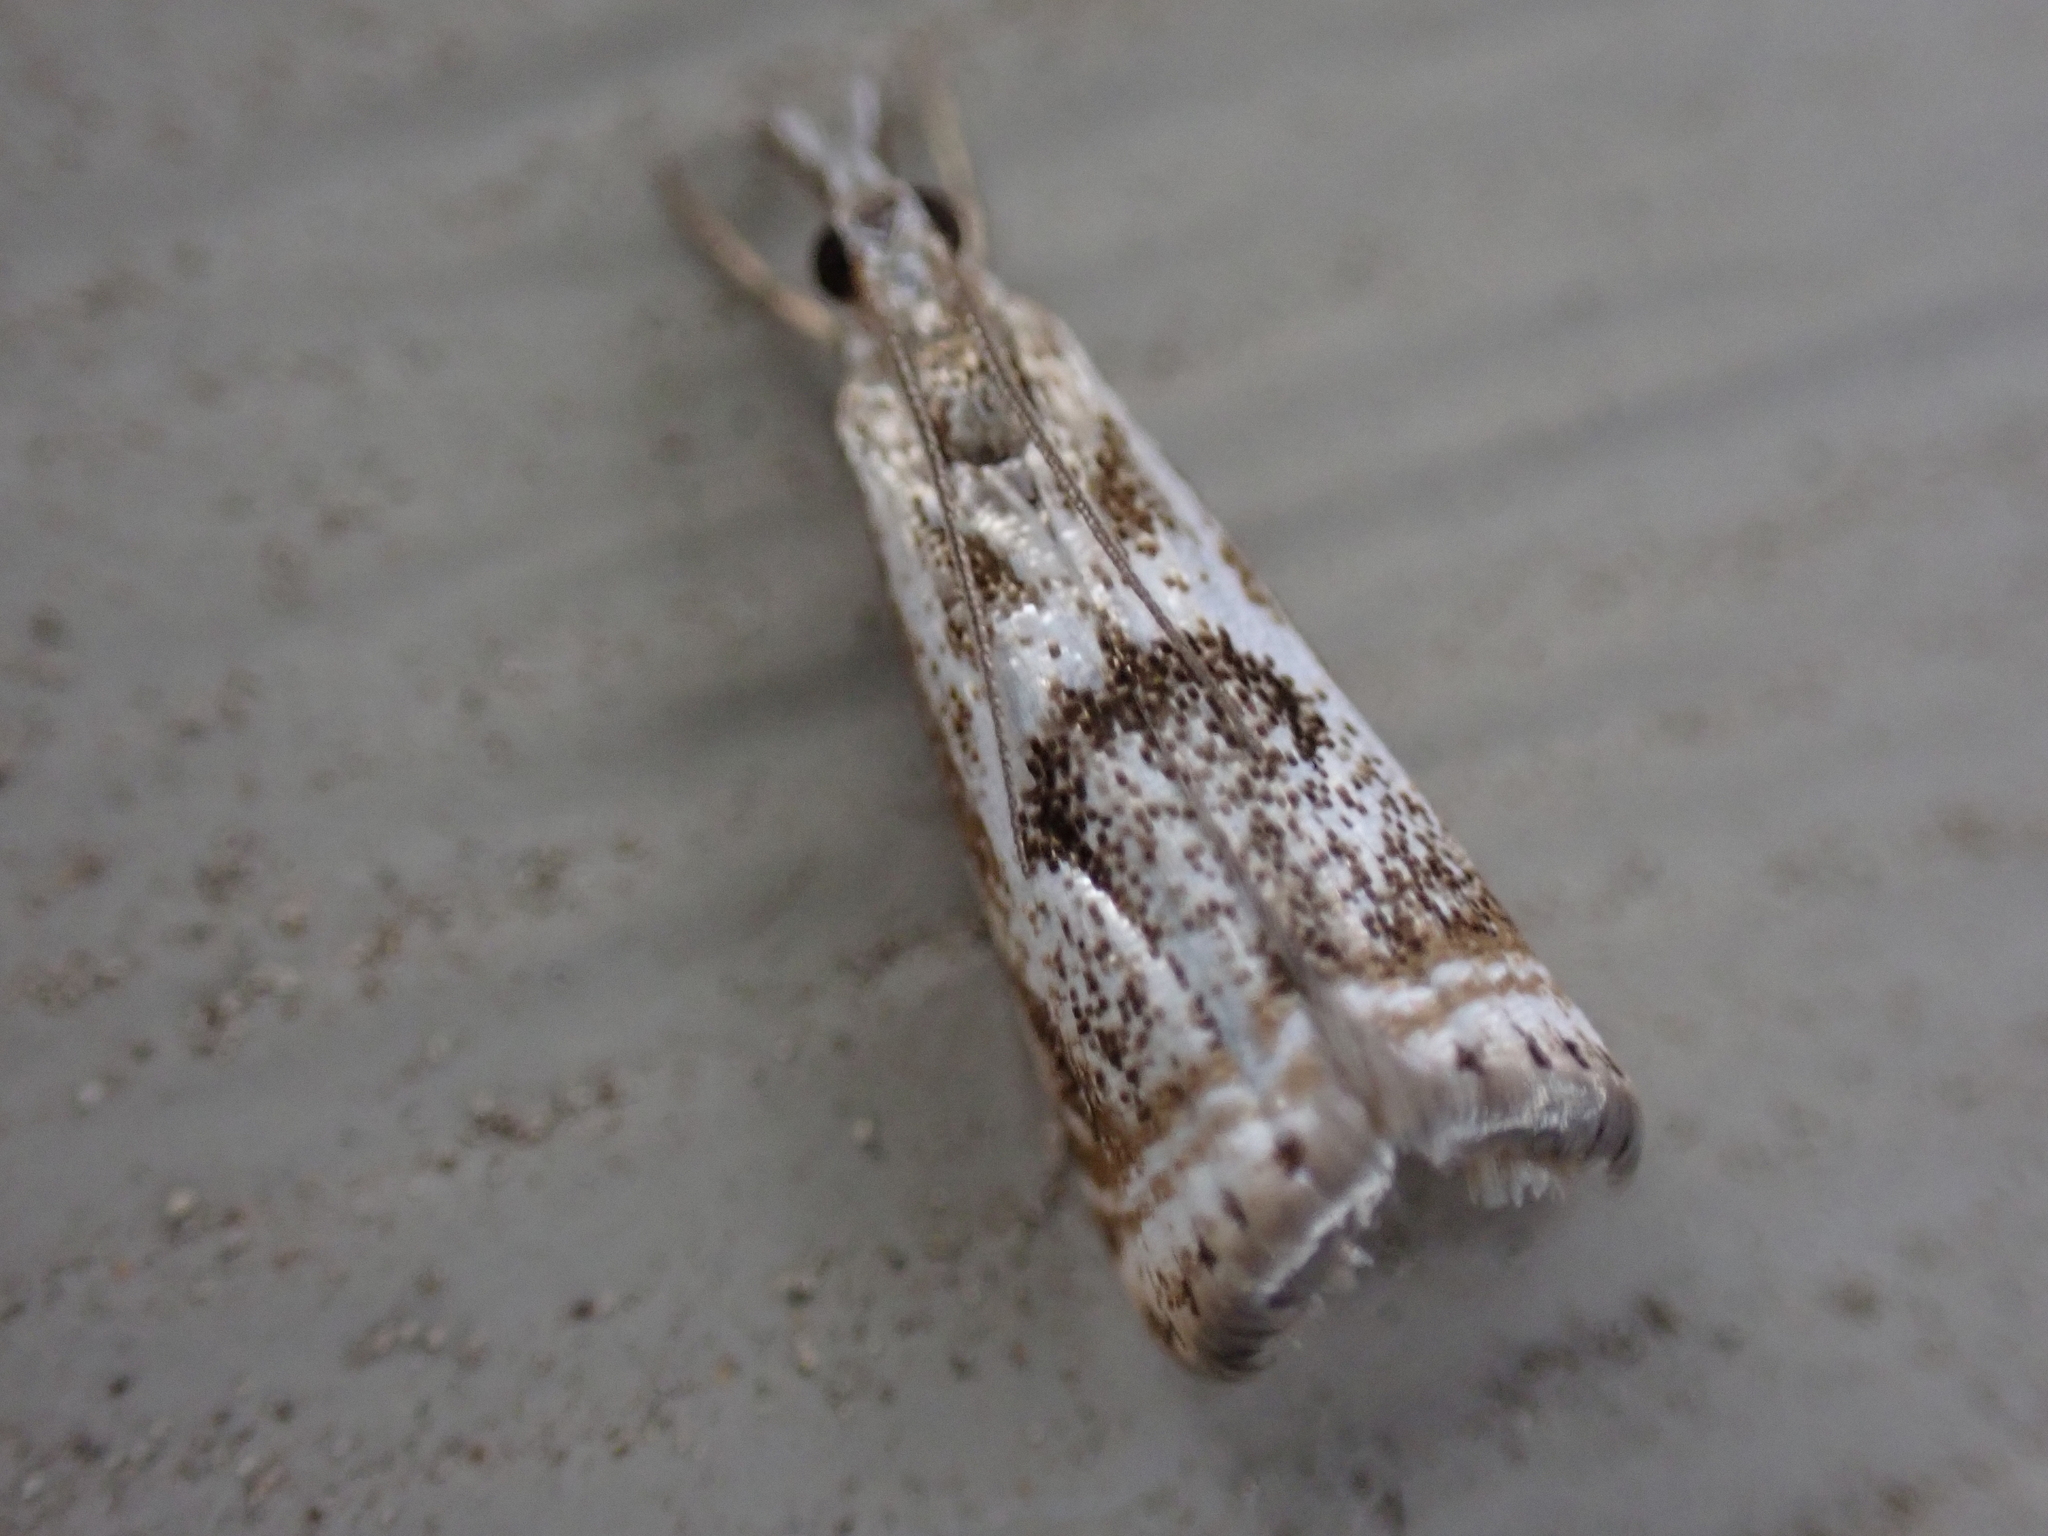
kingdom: Animalia
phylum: Arthropoda
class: Insecta
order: Lepidoptera
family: Crambidae
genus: Microcrambus
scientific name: Microcrambus elegans
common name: Elegant grass-veneer
